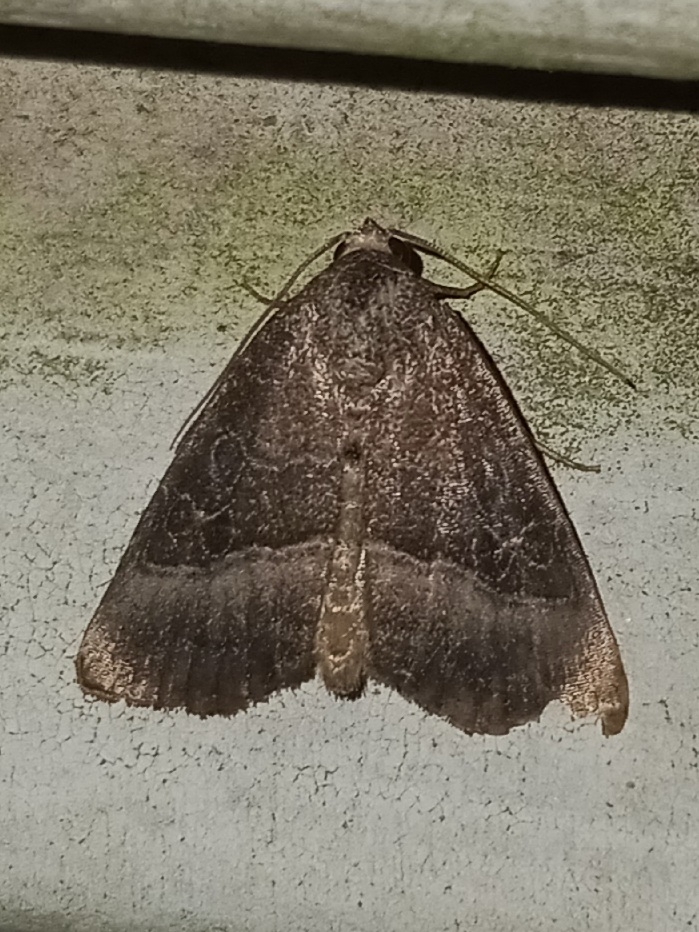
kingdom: Animalia
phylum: Arthropoda
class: Insecta
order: Lepidoptera
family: Noctuidae
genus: Ogdoconta
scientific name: Ogdoconta cinereola
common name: Common pinkband
